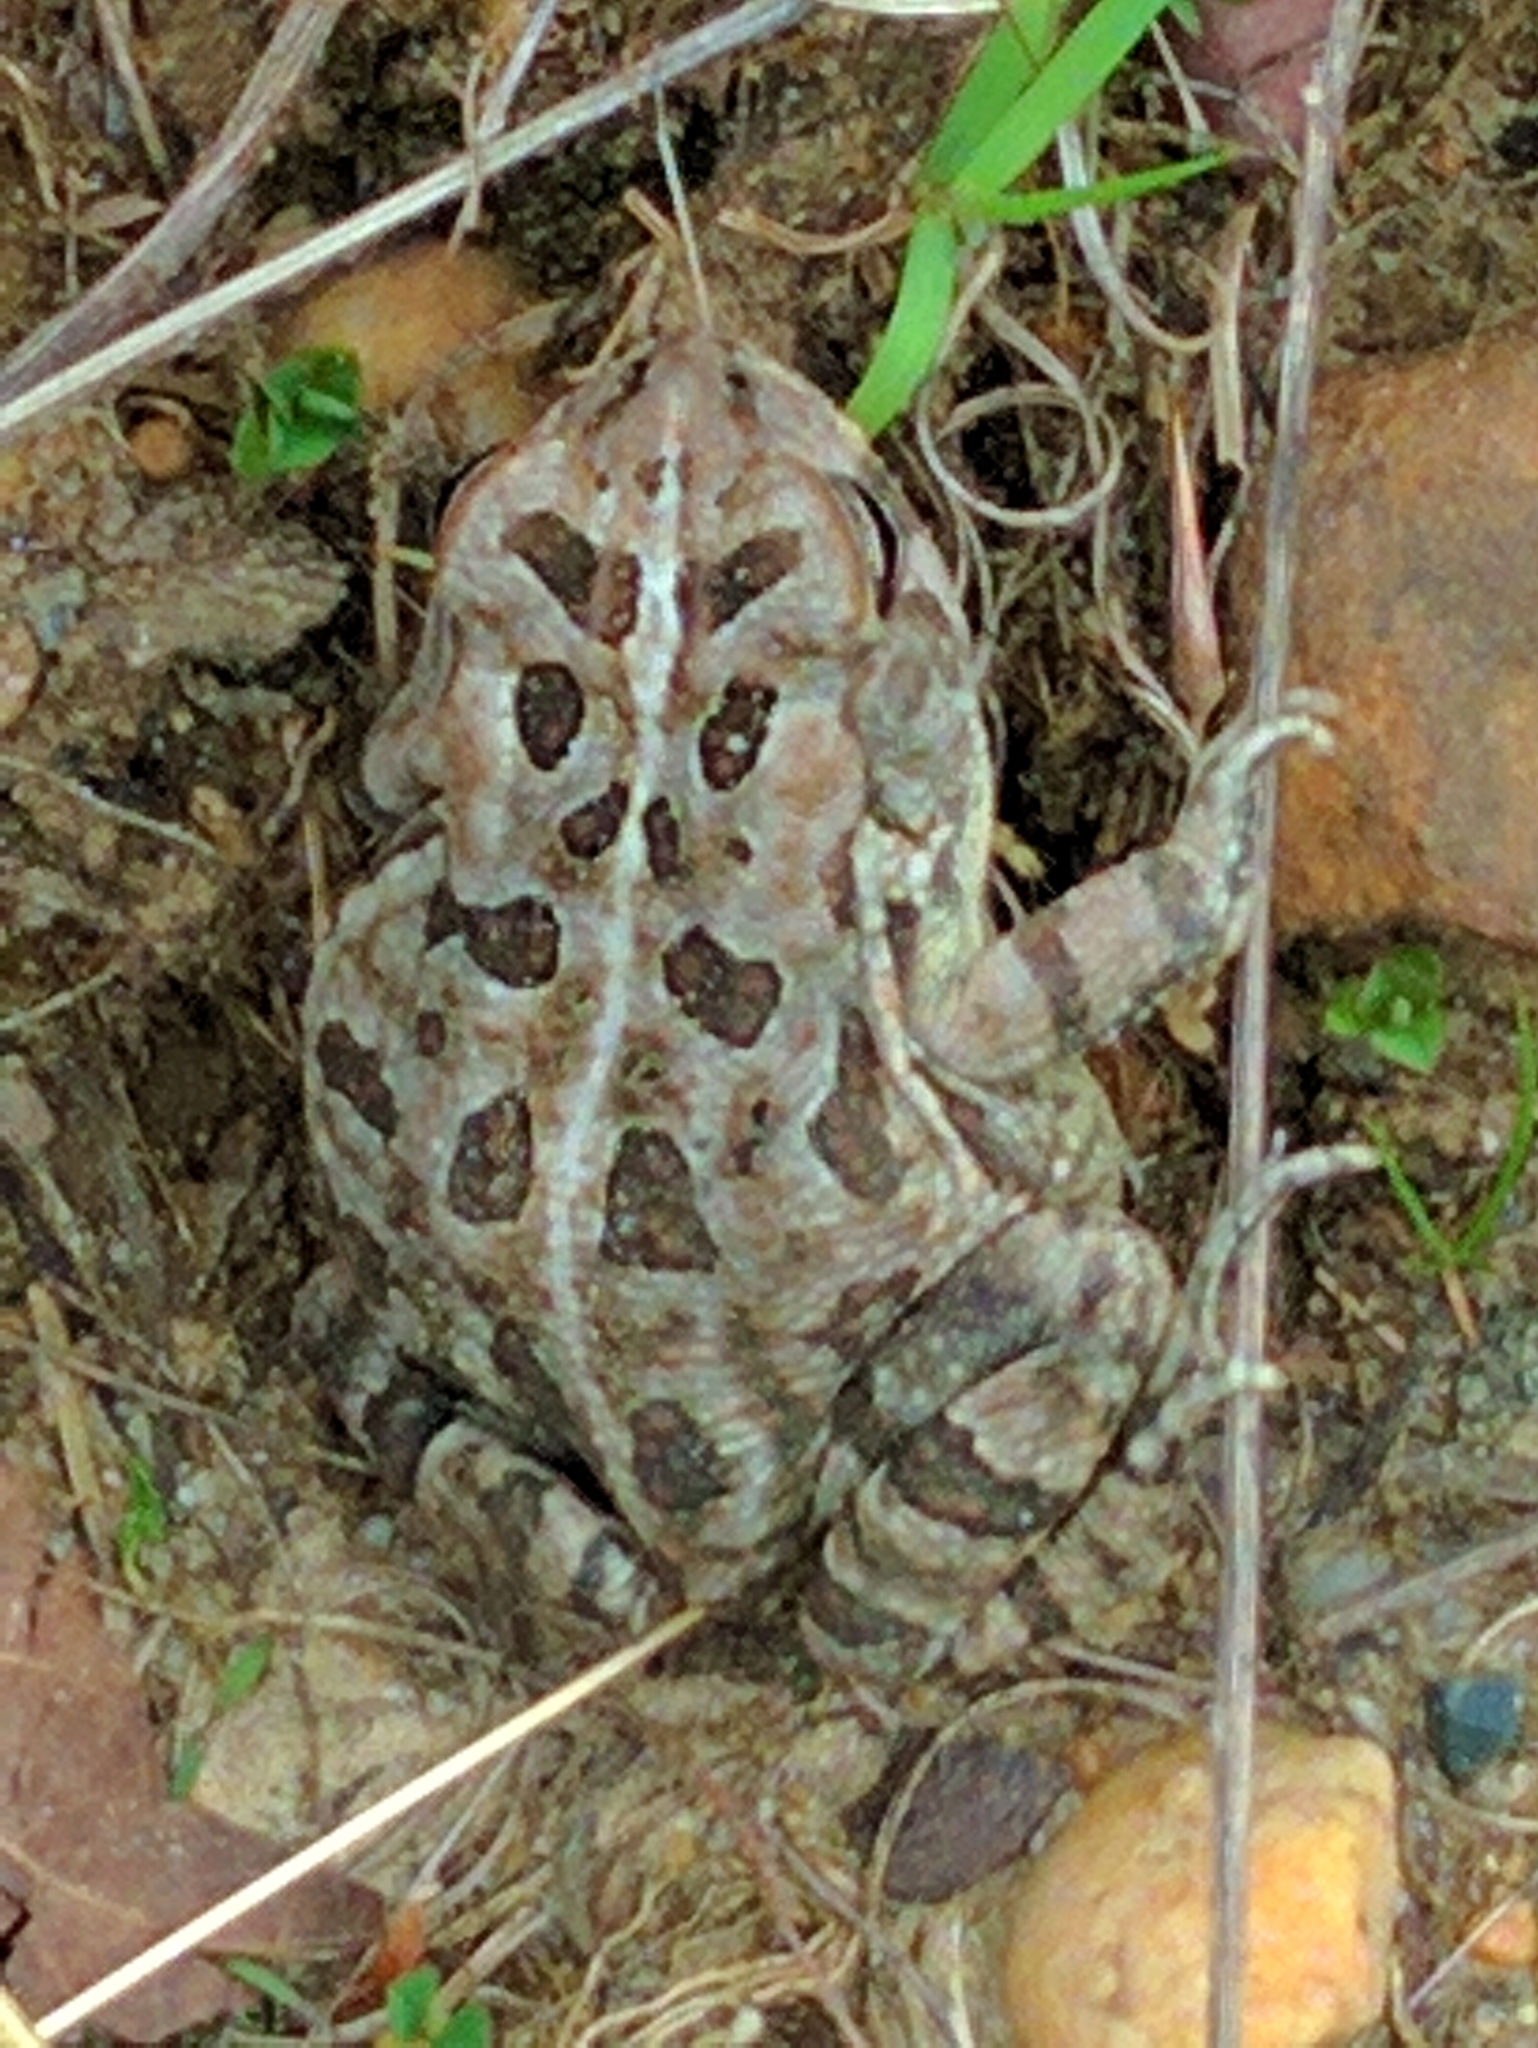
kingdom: Animalia
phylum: Chordata
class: Amphibia
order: Anura
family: Bufonidae
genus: Anaxyrus
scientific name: Anaxyrus fowleri
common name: Fowler's toad
